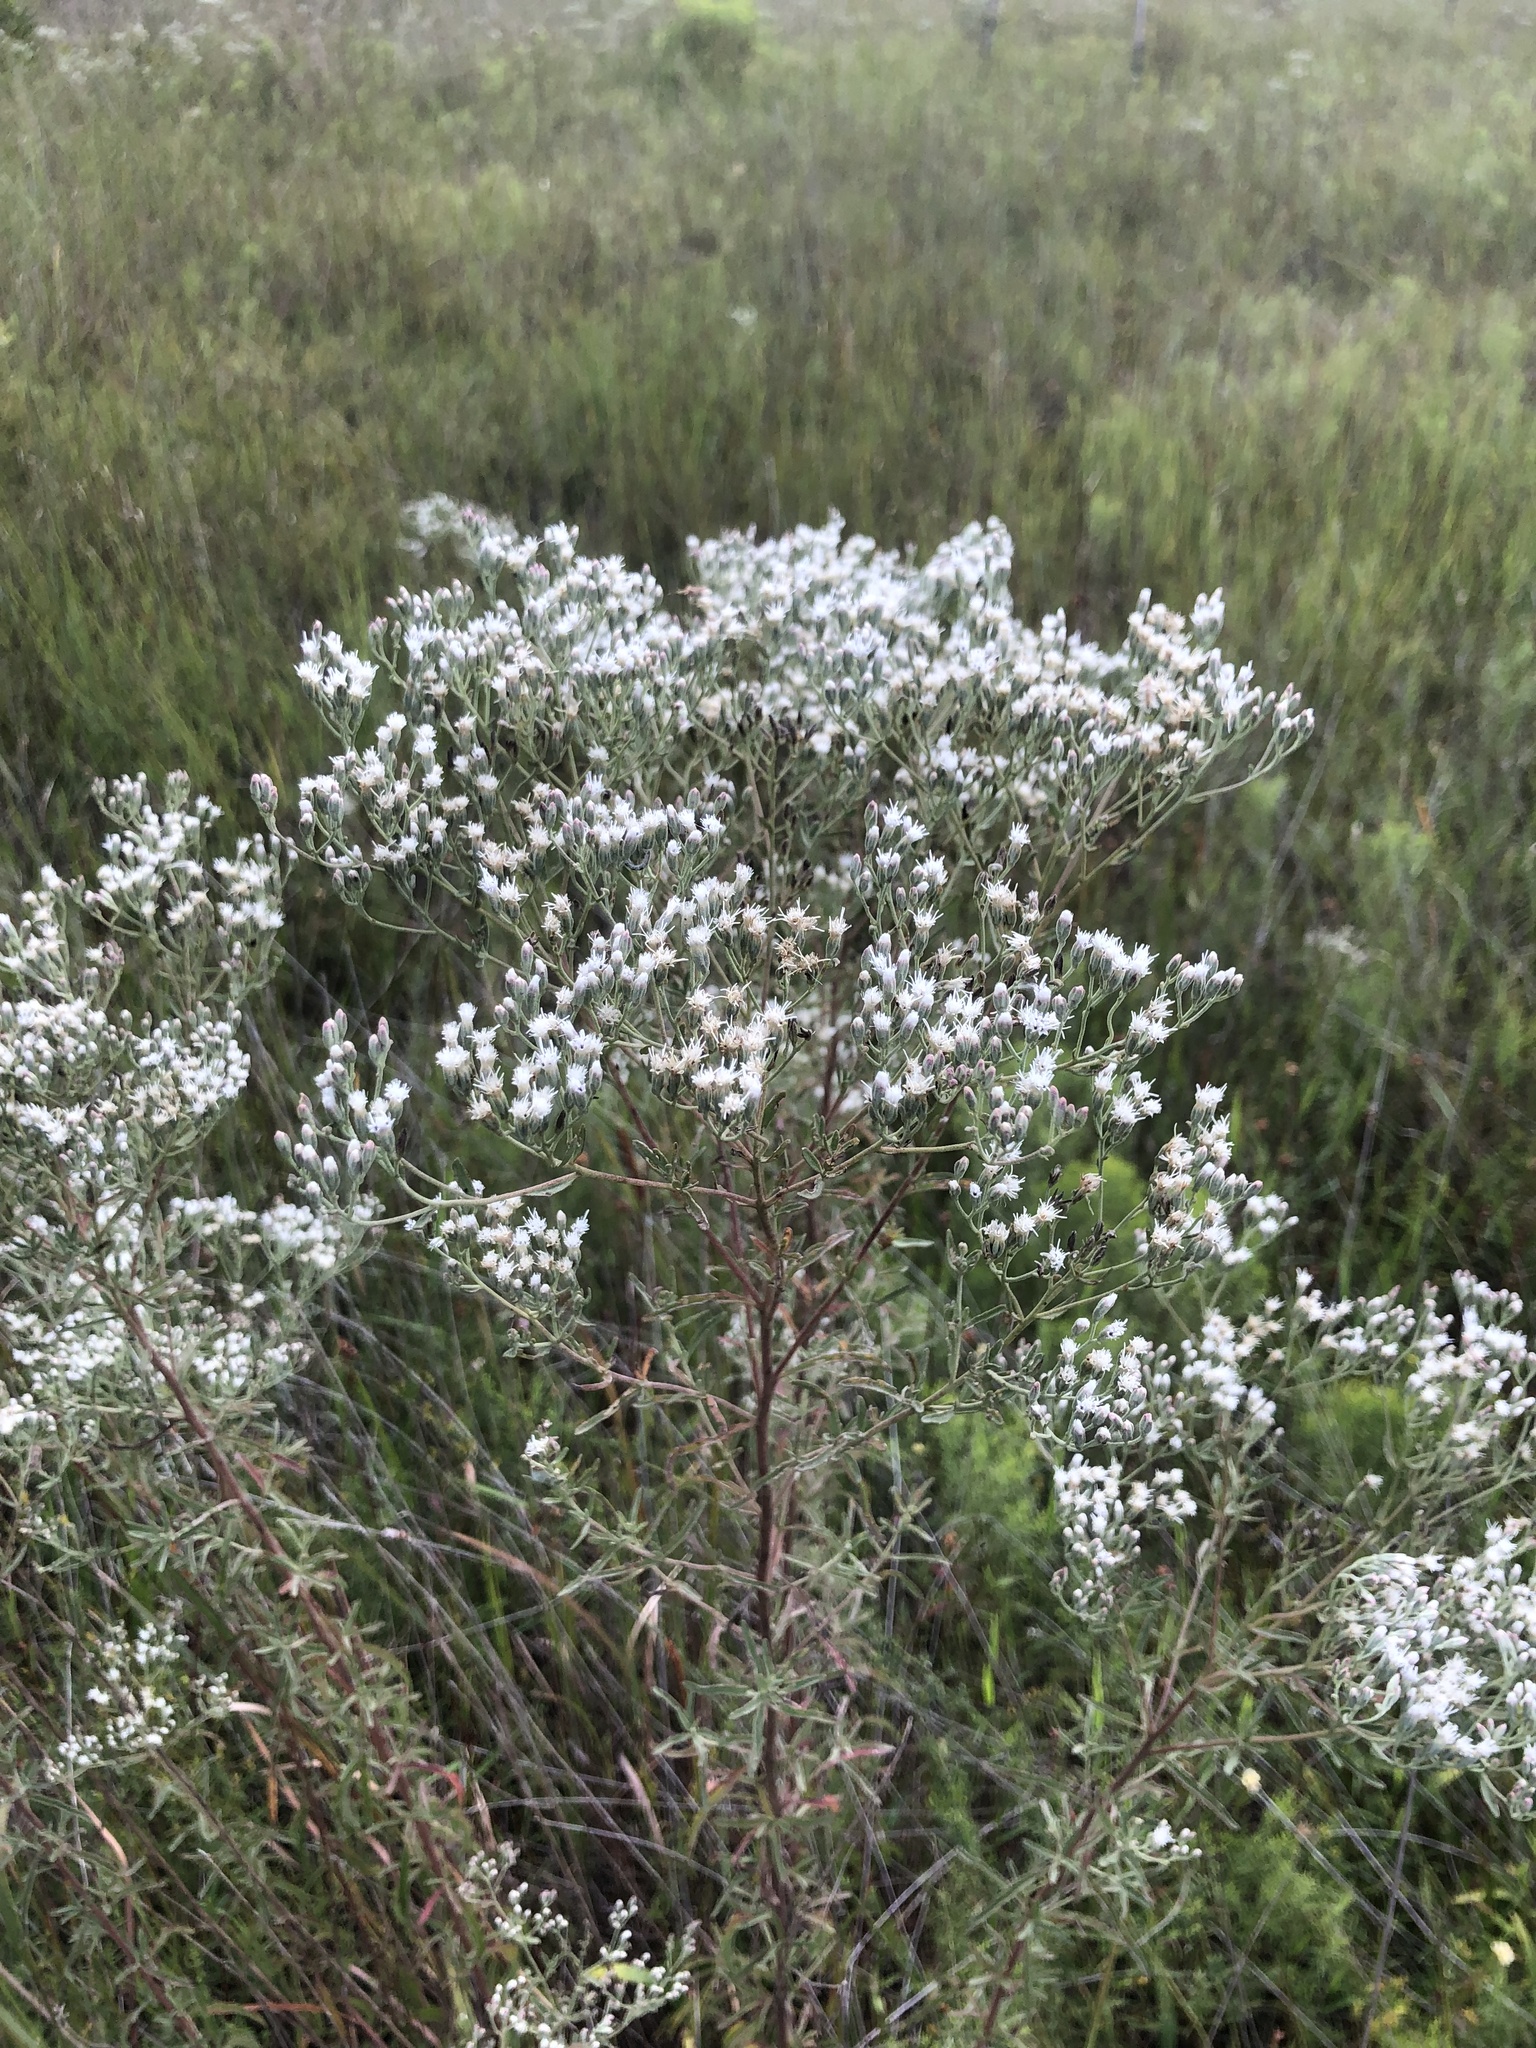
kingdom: Plantae
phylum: Tracheophyta
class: Magnoliopsida
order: Asterales
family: Asteraceae
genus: Eupatorium
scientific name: Eupatorium mohrii
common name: Mohr's thoroughwort
